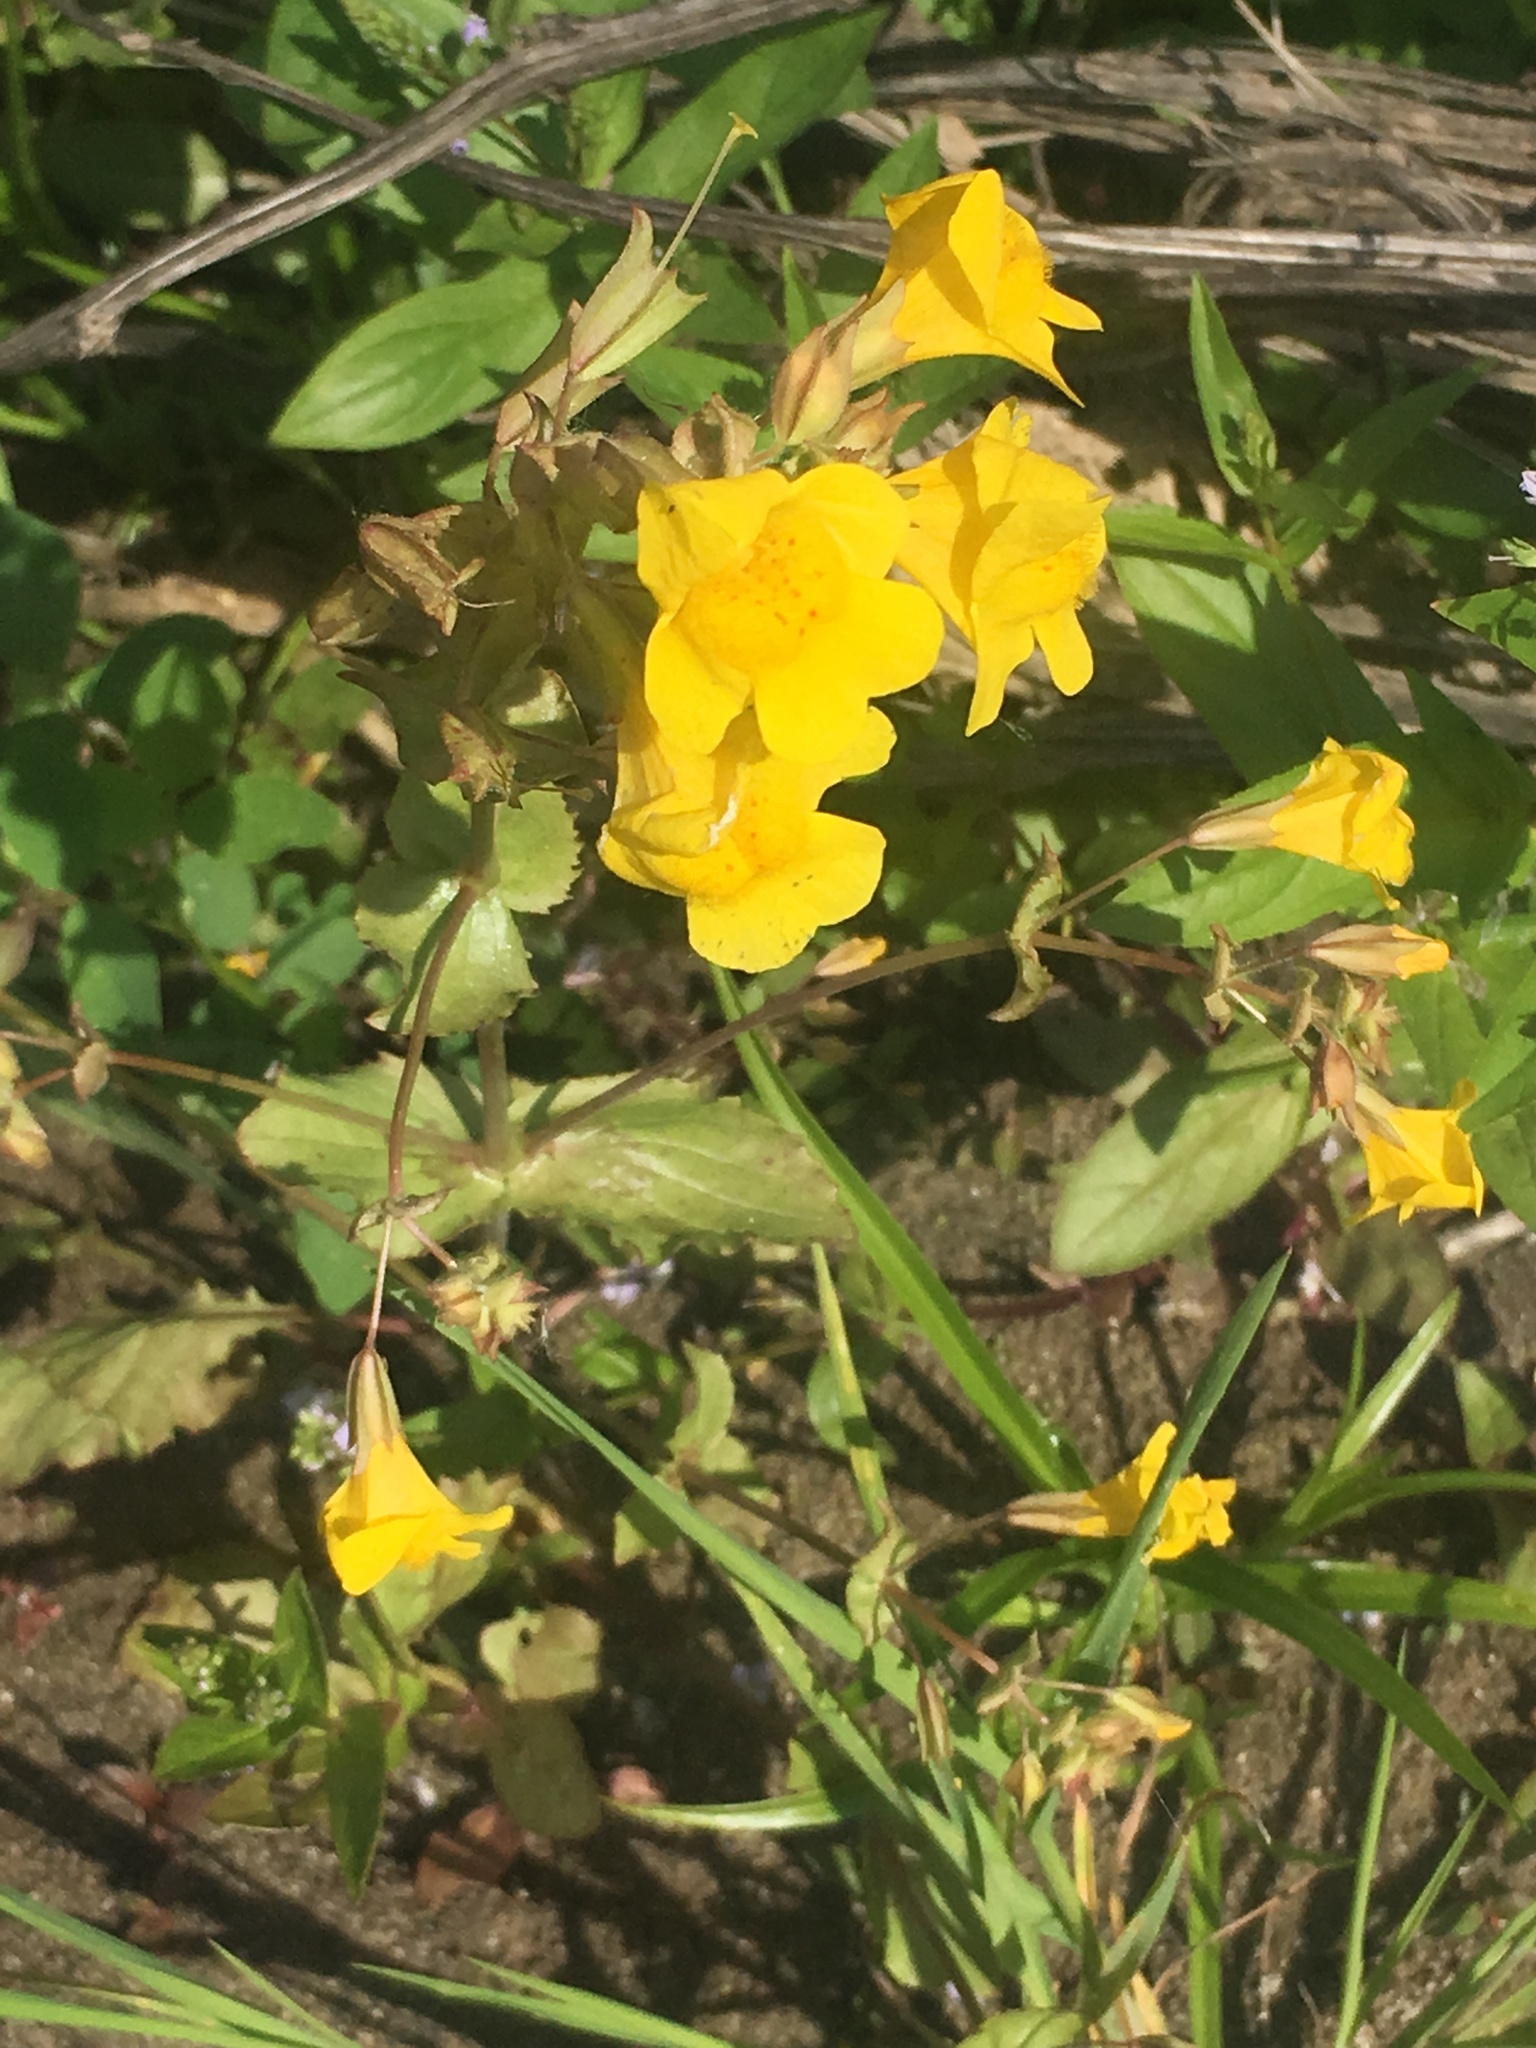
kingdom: Plantae
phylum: Tracheophyta
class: Magnoliopsida
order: Lamiales
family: Phrymaceae
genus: Erythranthe
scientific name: Erythranthe guttata
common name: Monkeyflower
